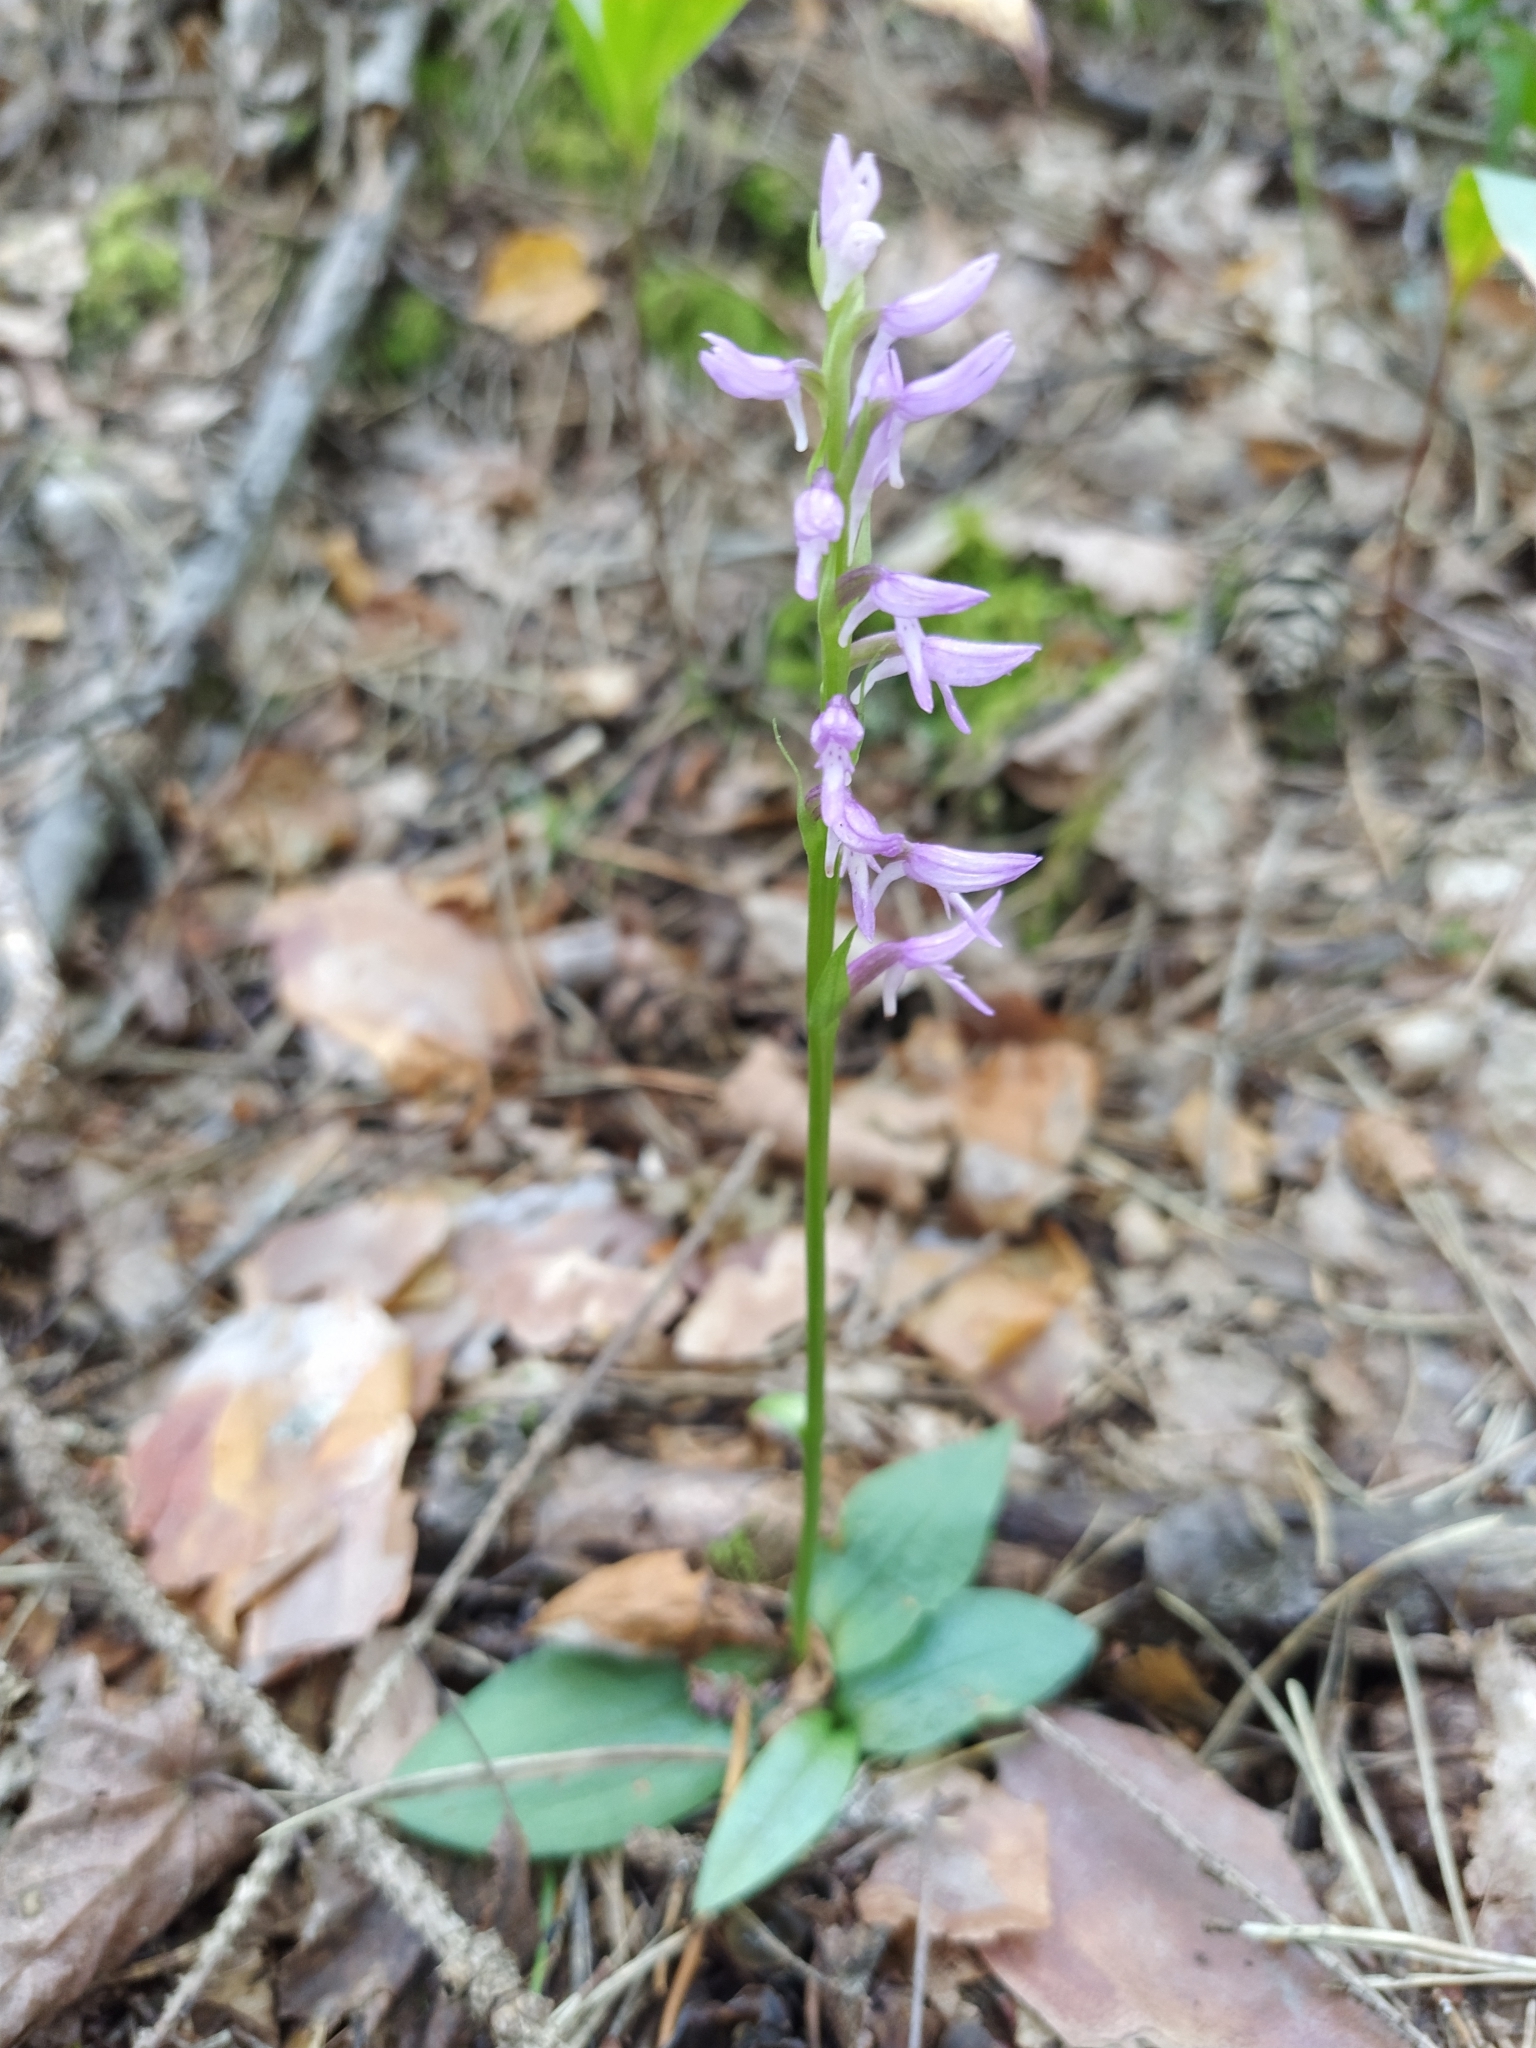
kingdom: Plantae
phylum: Tracheophyta
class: Liliopsida
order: Asparagales
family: Orchidaceae
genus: Hemipilia
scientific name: Hemipilia cucullata
